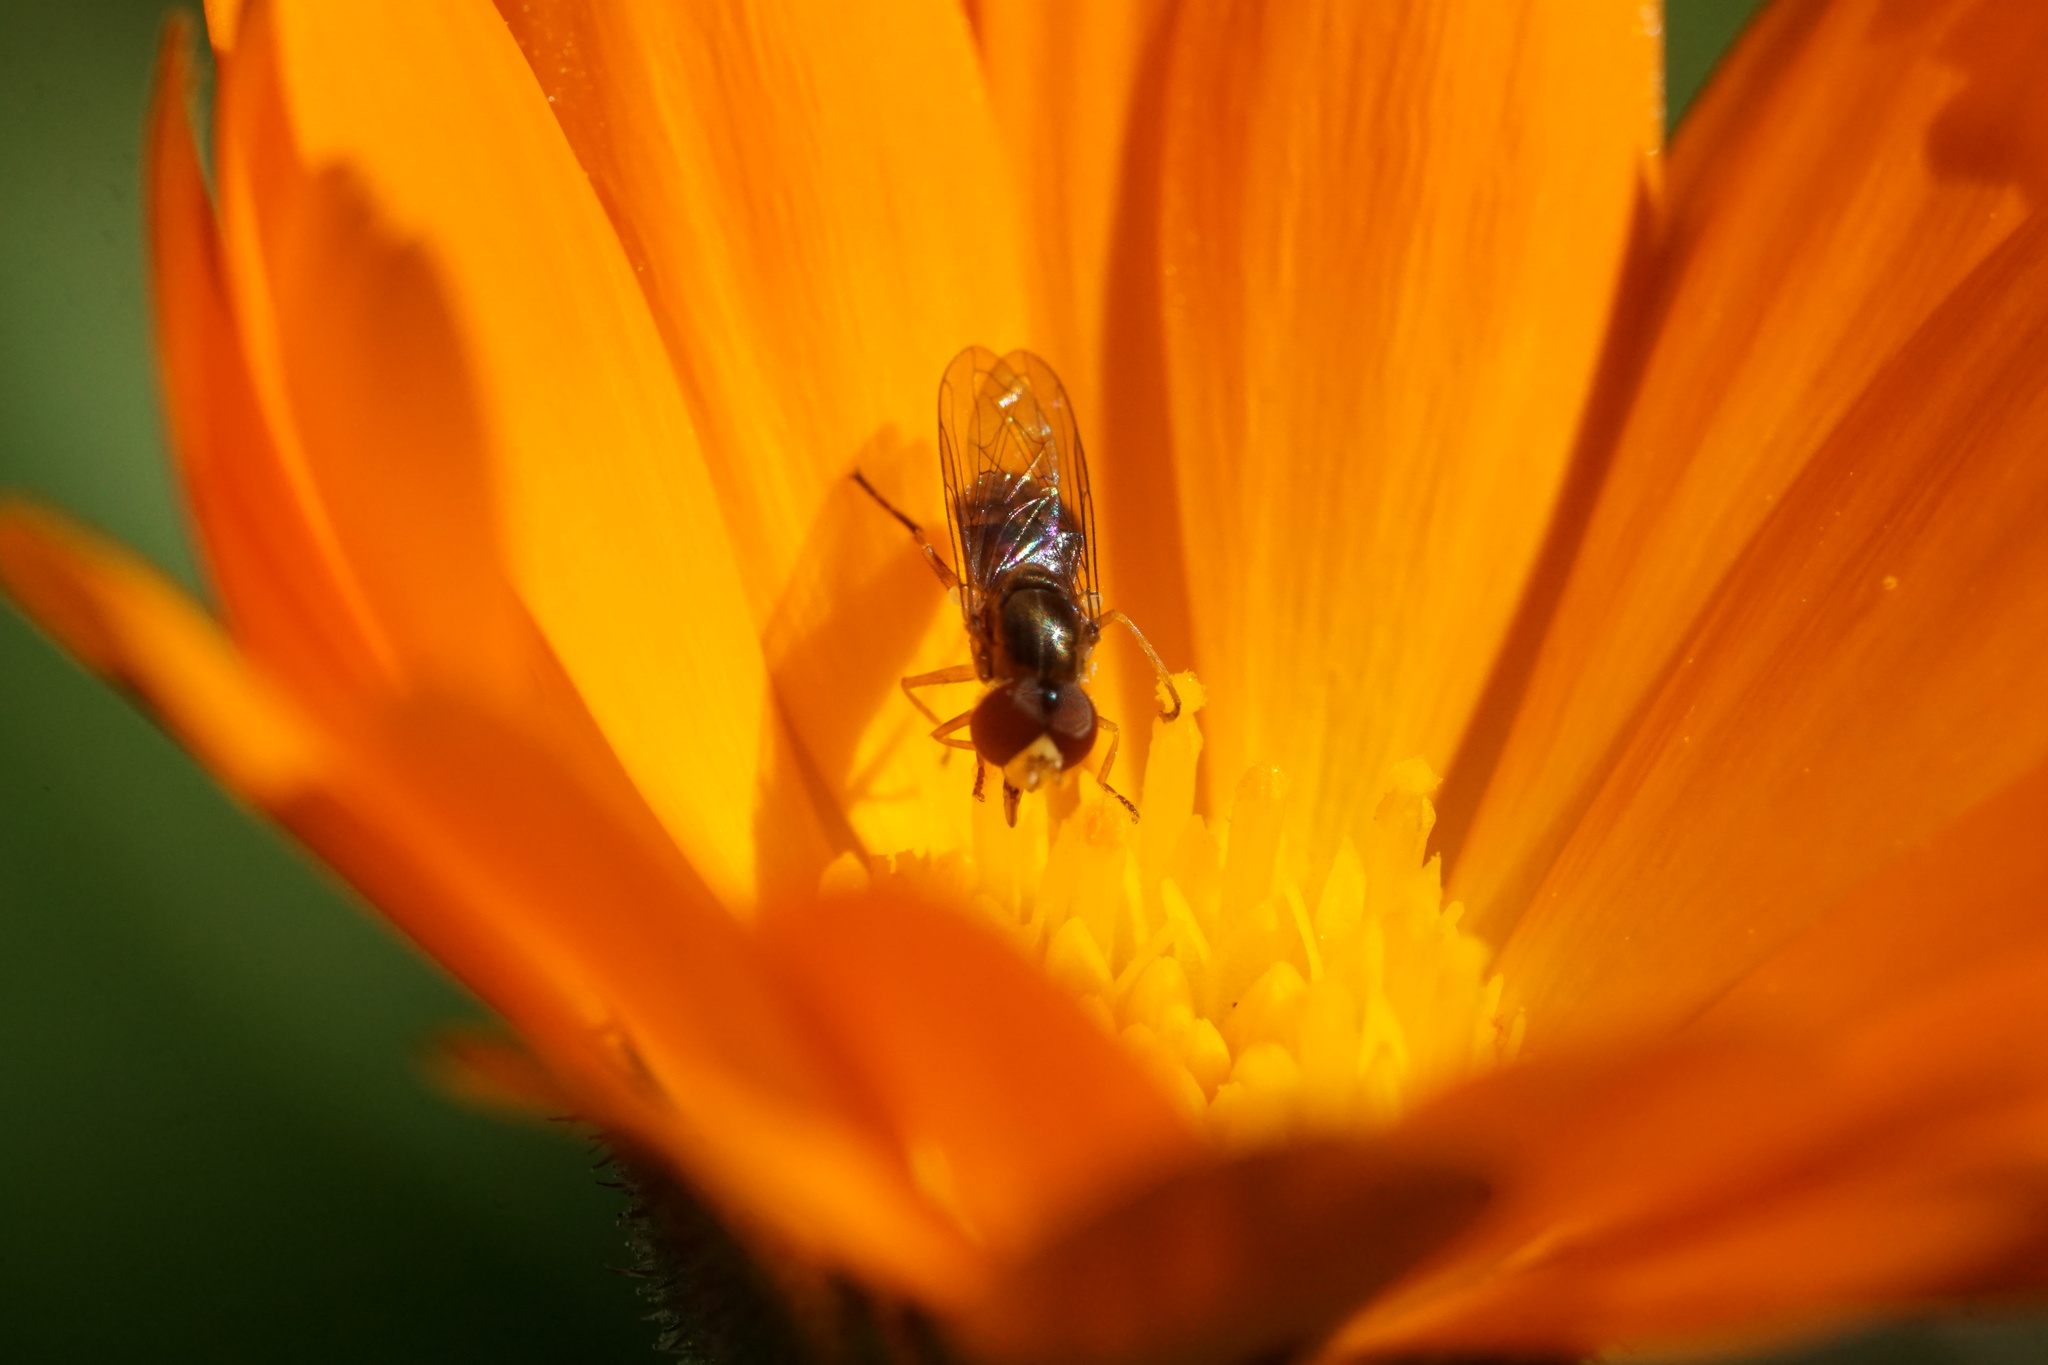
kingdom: Animalia
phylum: Arthropoda
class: Insecta
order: Diptera
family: Syrphidae
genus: Toxomerus
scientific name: Toxomerus marginatus
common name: Syrphid fly
